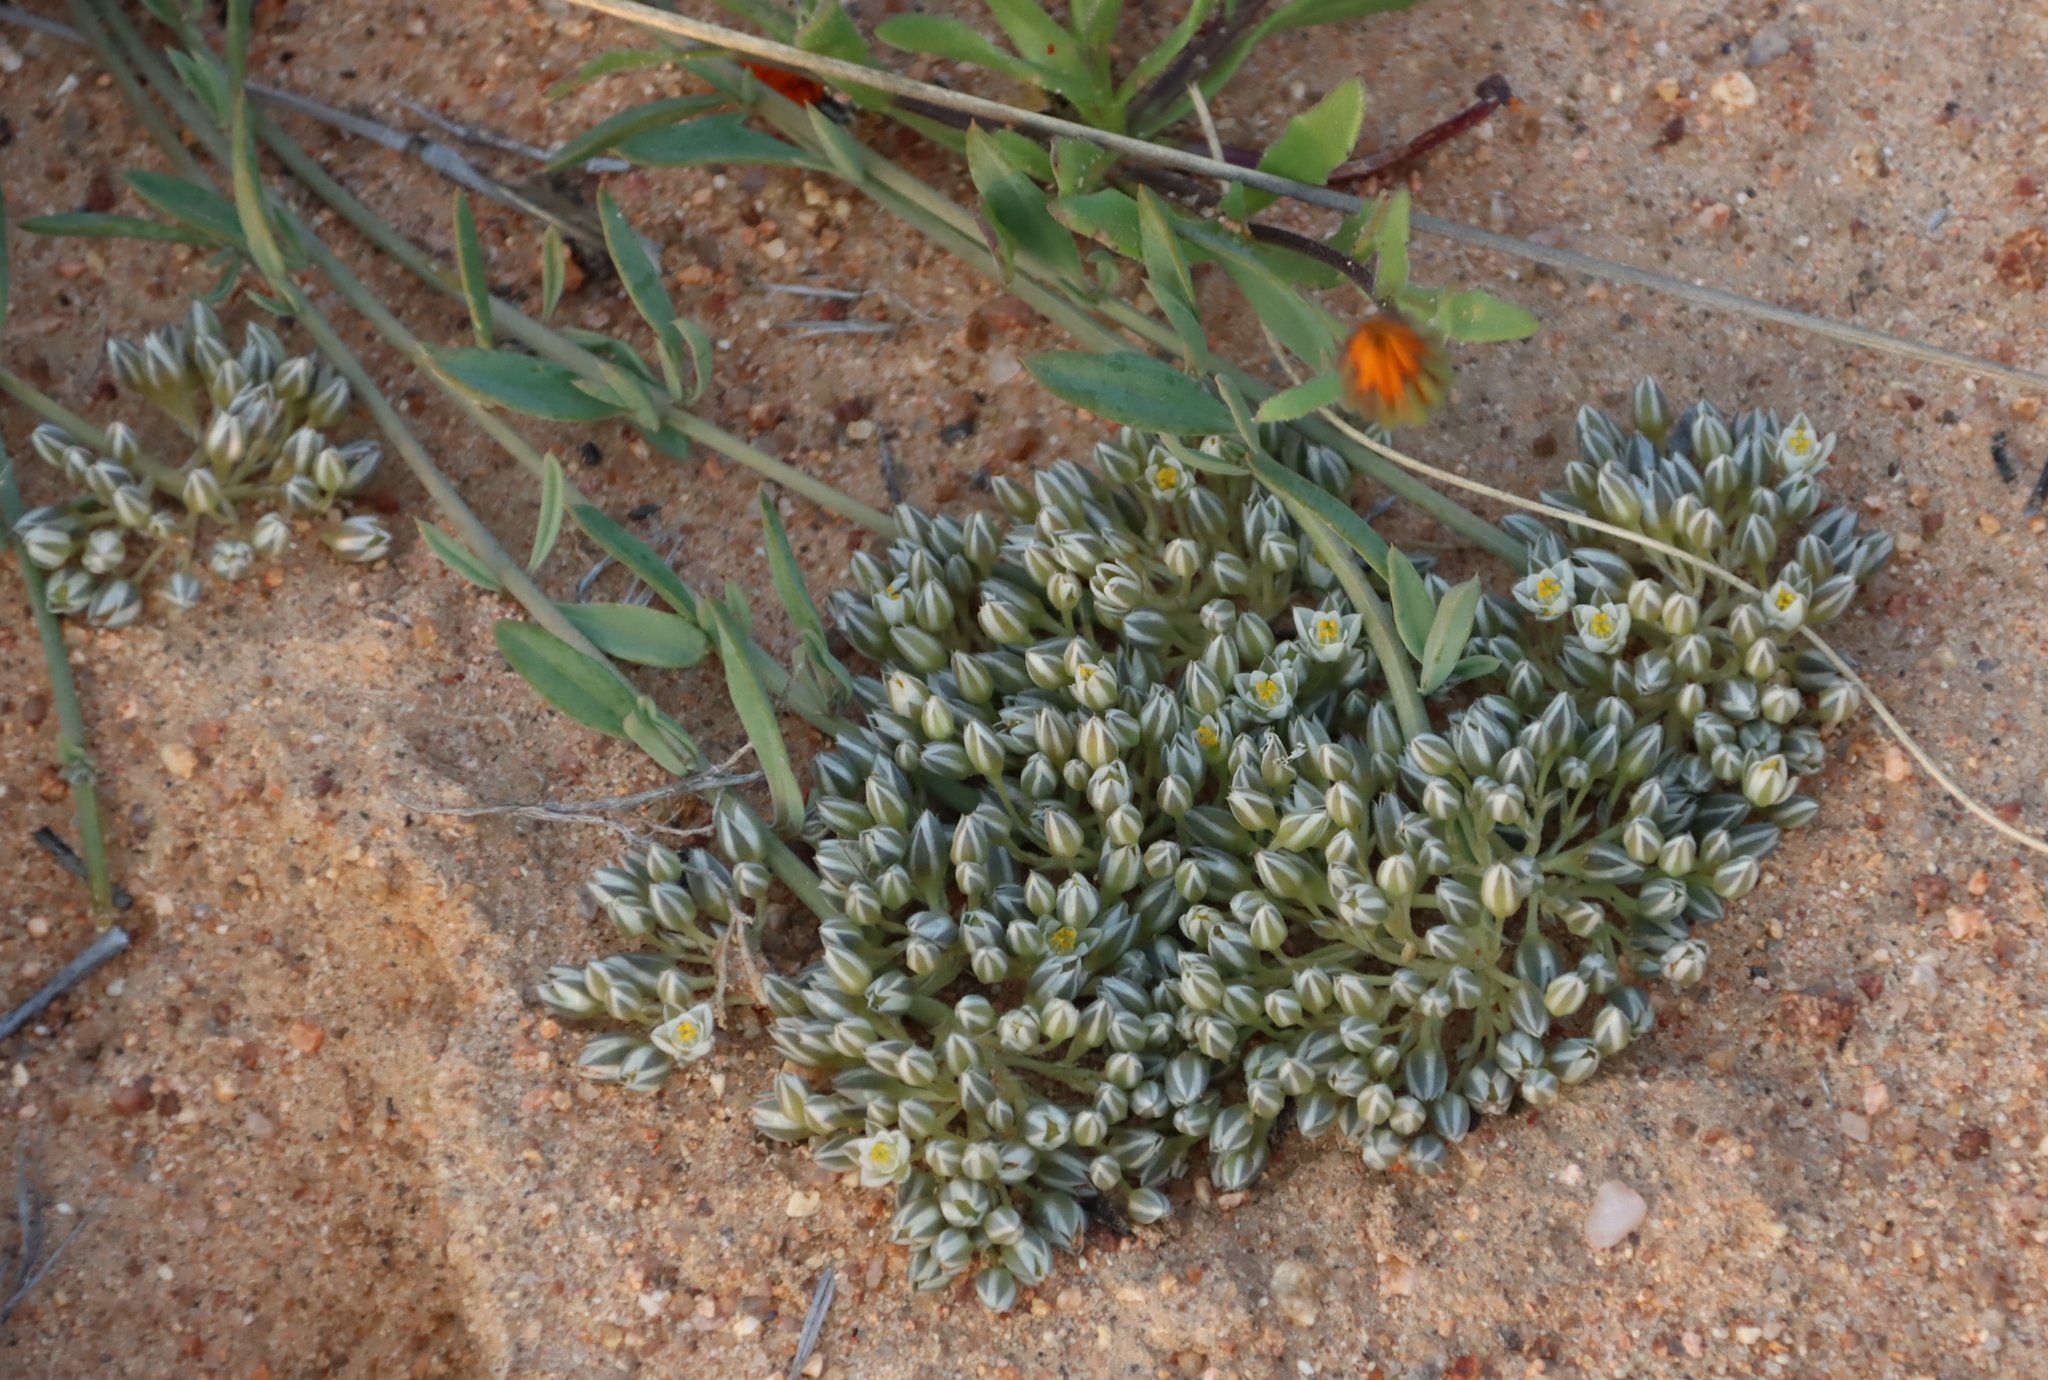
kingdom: Plantae
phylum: Tracheophyta
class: Magnoliopsida
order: Caryophyllales
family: Limeaceae
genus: Limeum
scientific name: Limeum africanum
